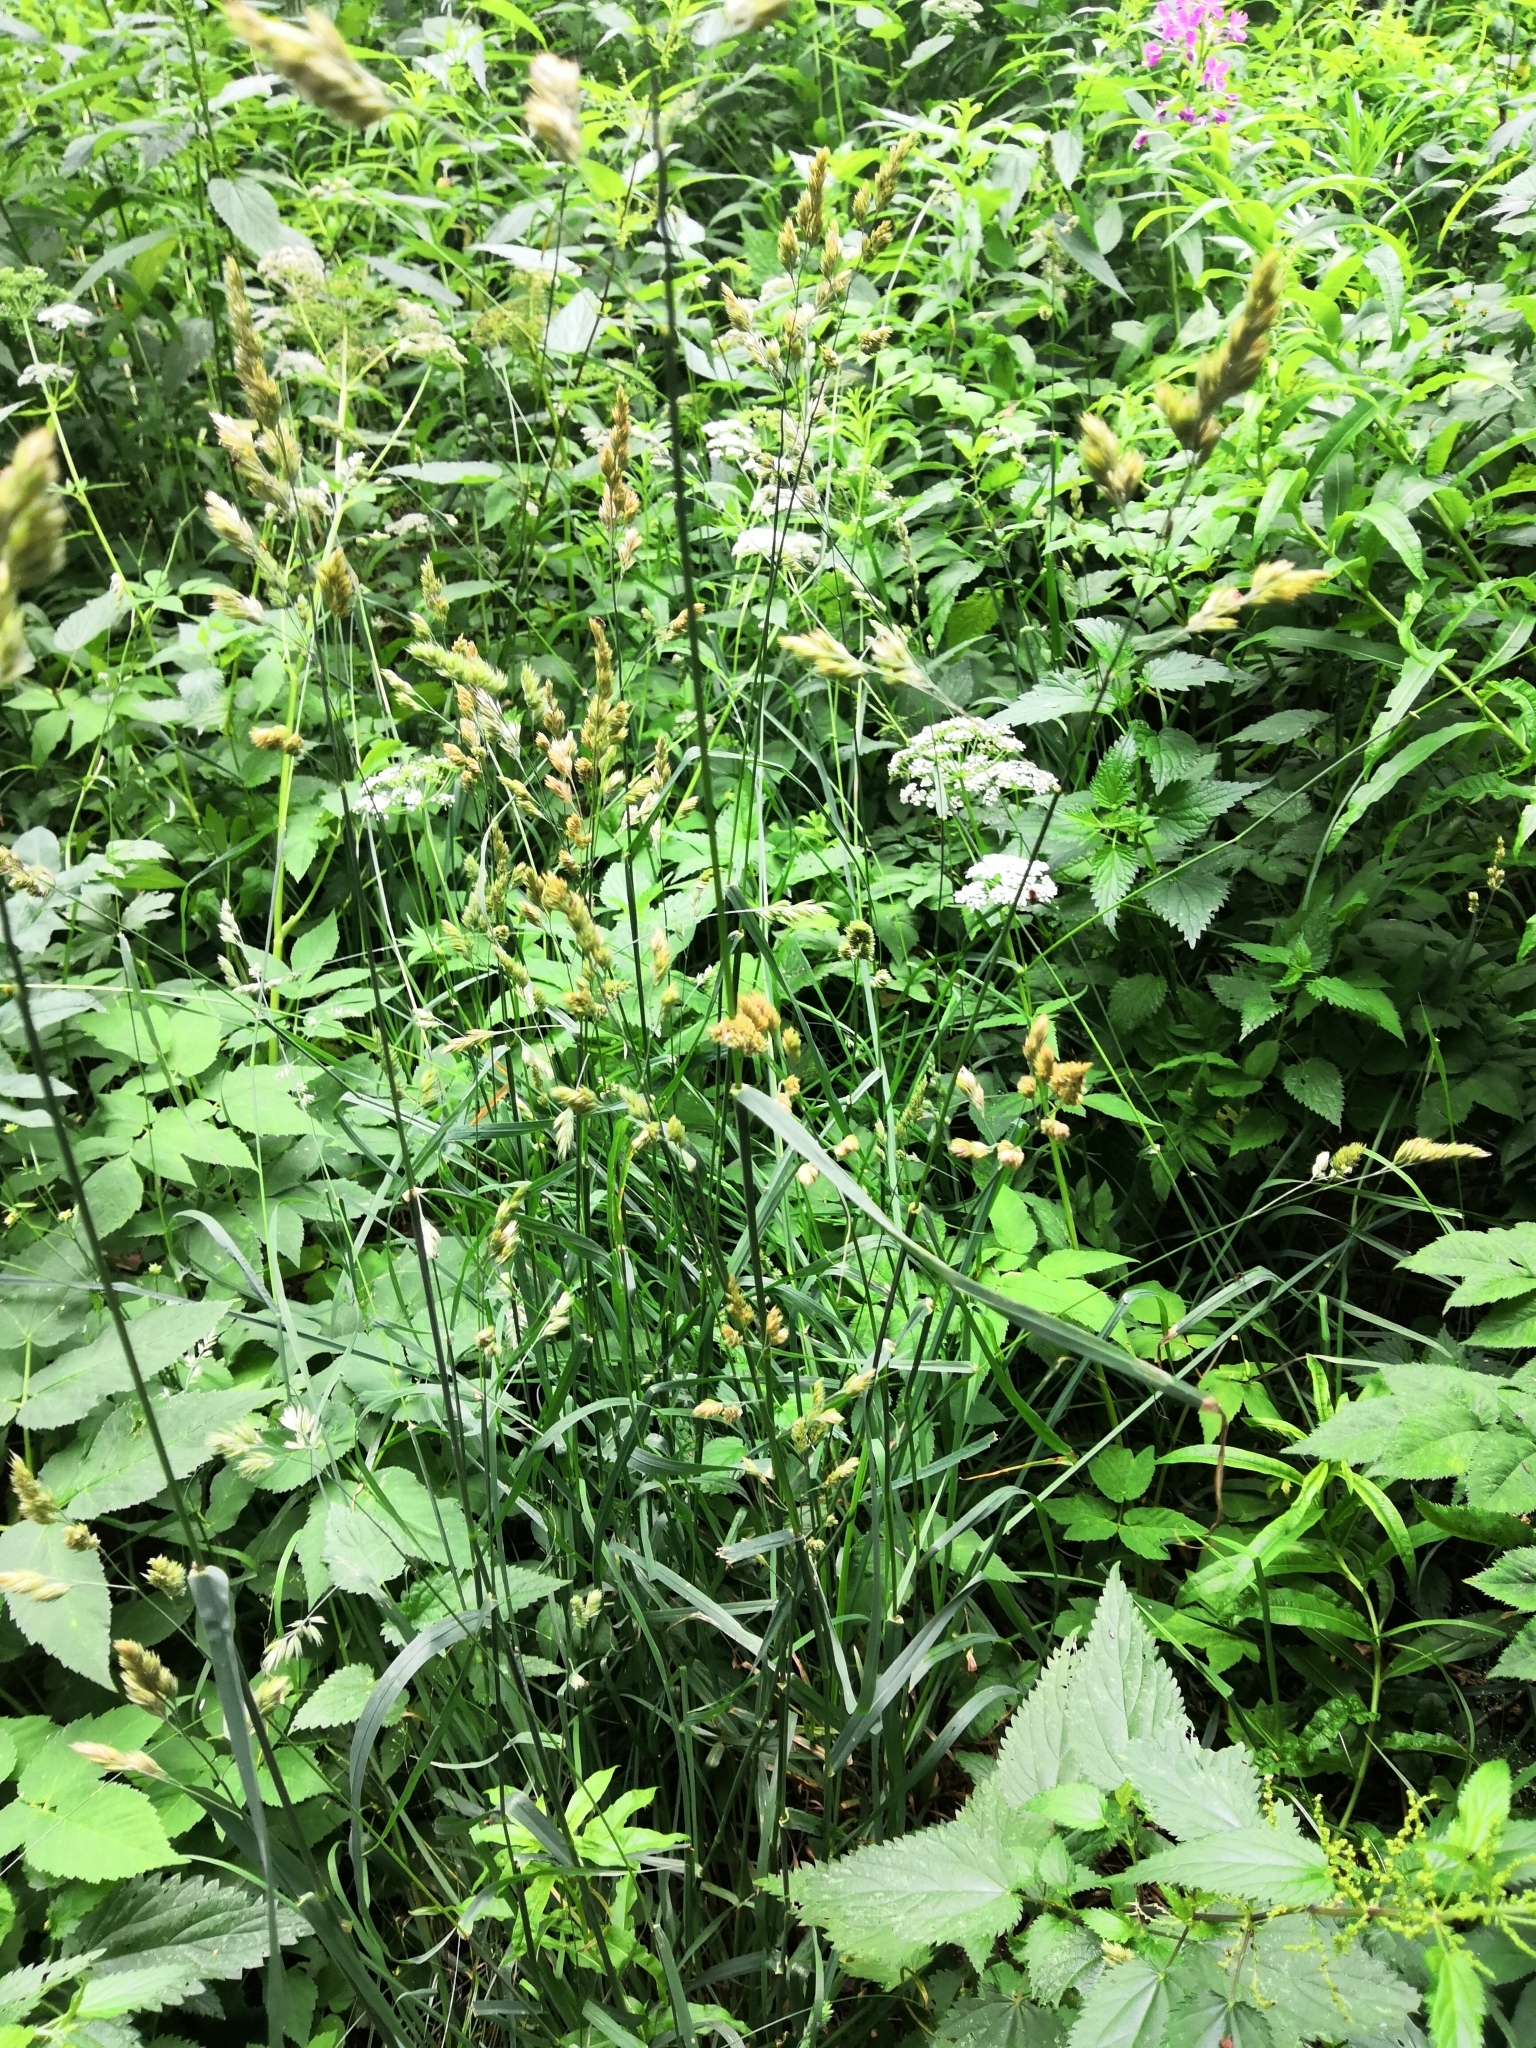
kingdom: Plantae
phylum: Tracheophyta
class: Liliopsida
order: Poales
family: Poaceae
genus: Dactylis
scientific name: Dactylis glomerata
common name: Orchardgrass
